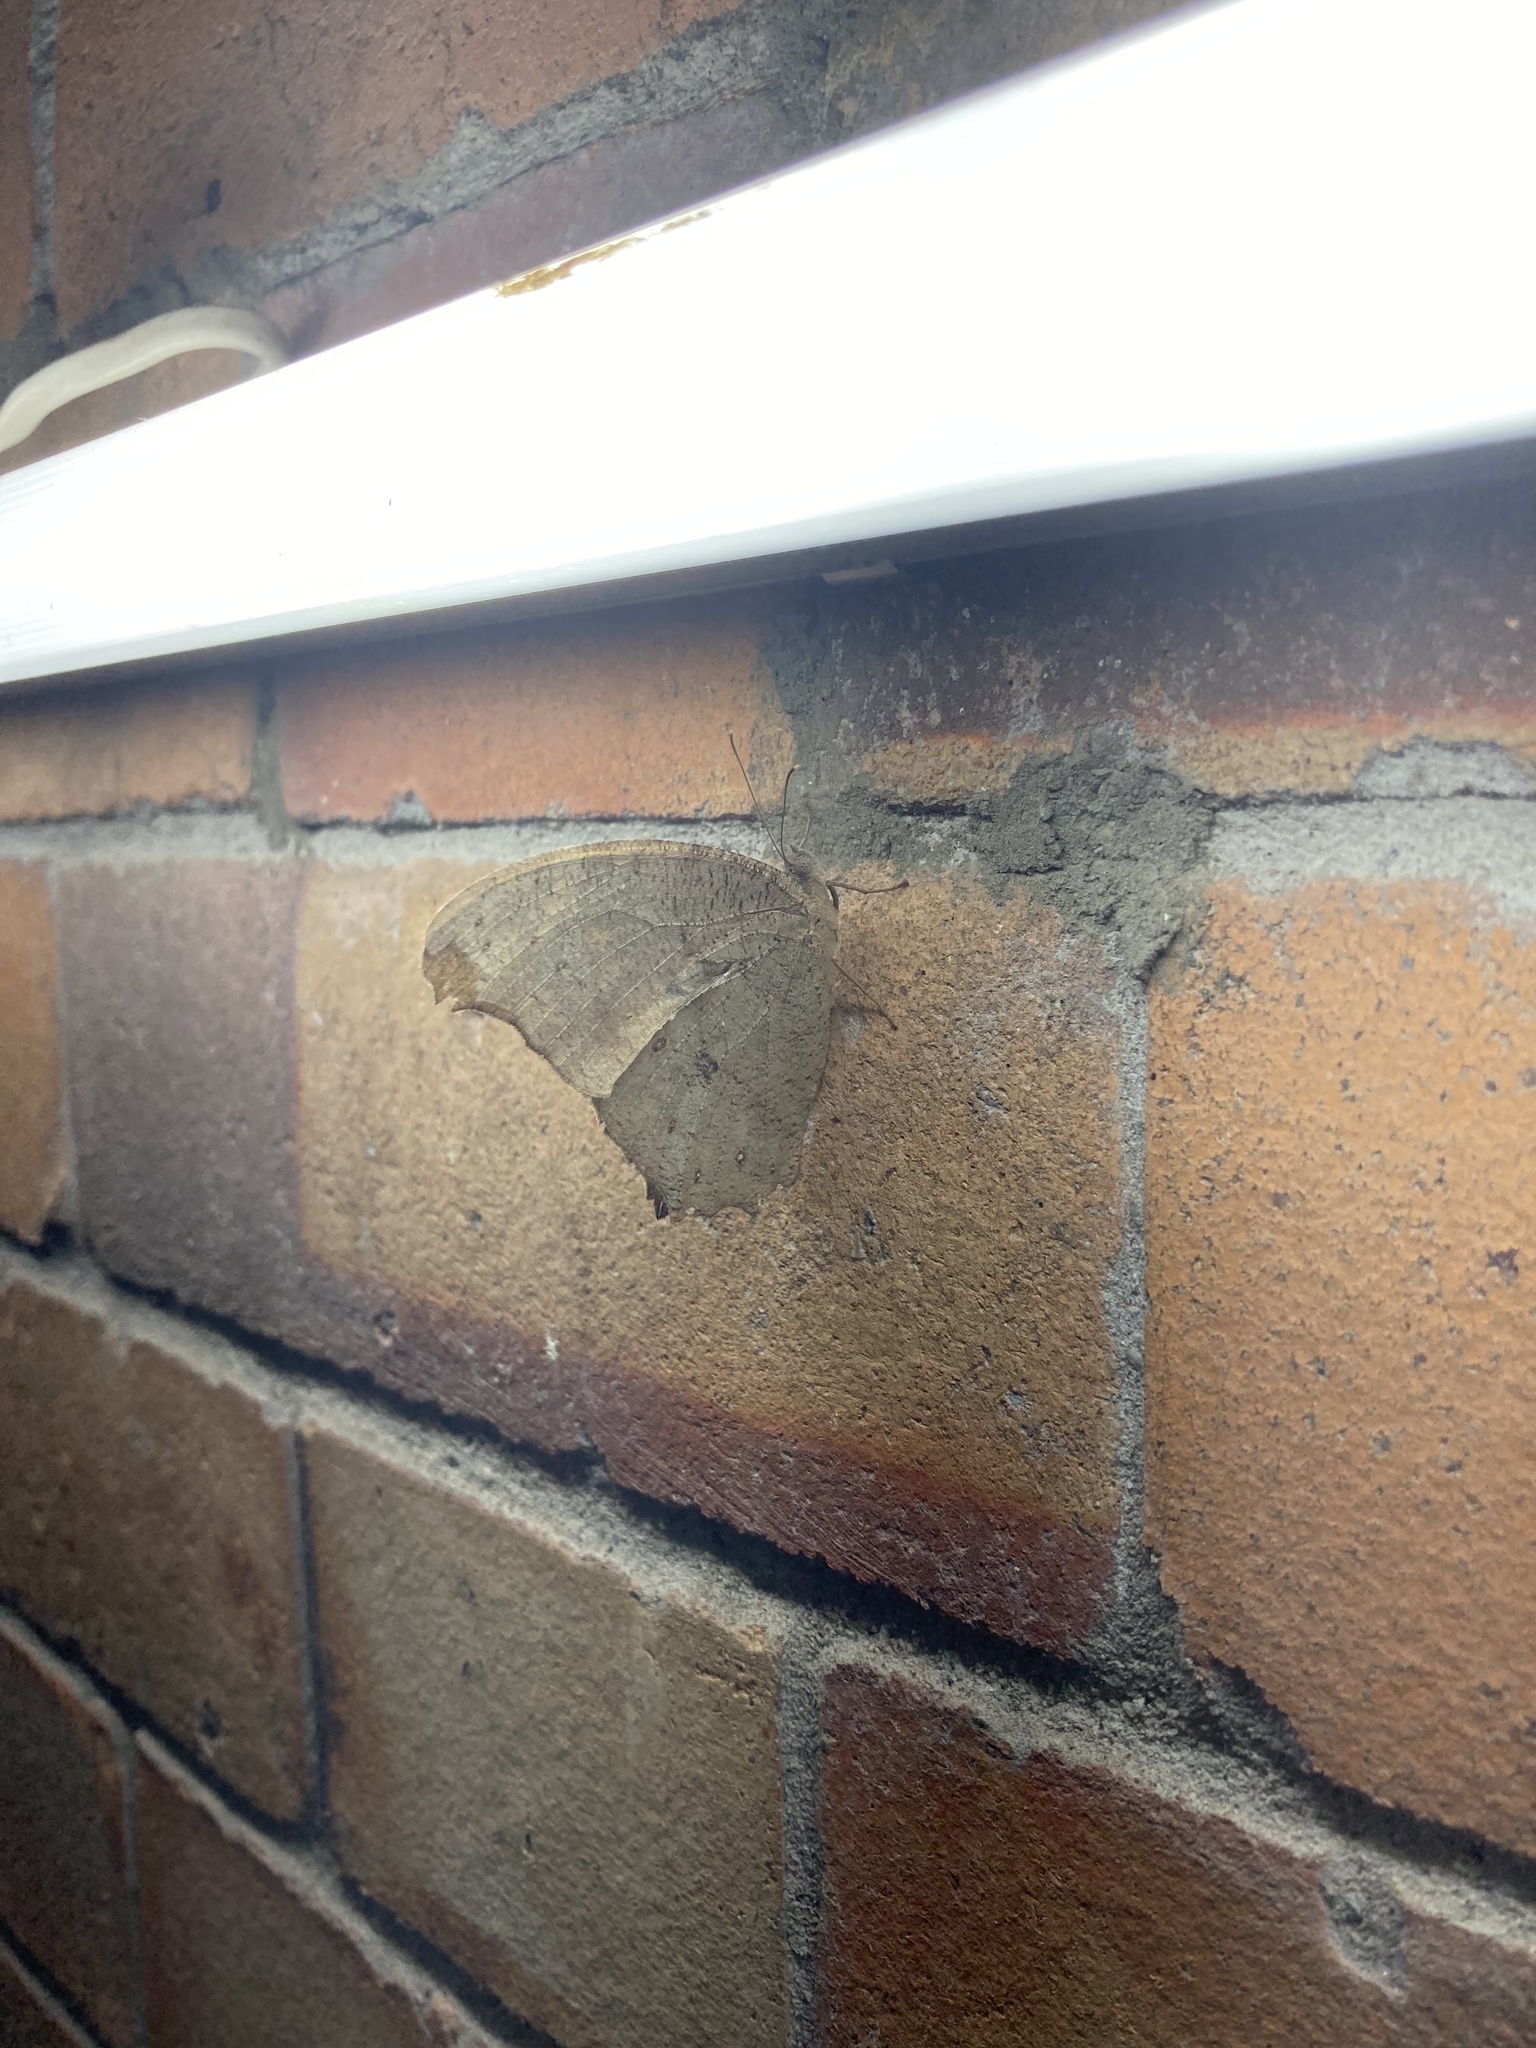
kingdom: Animalia
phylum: Arthropoda
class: Insecta
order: Lepidoptera
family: Nymphalidae
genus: Melanitis
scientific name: Melanitis leda
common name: Twilight brown
